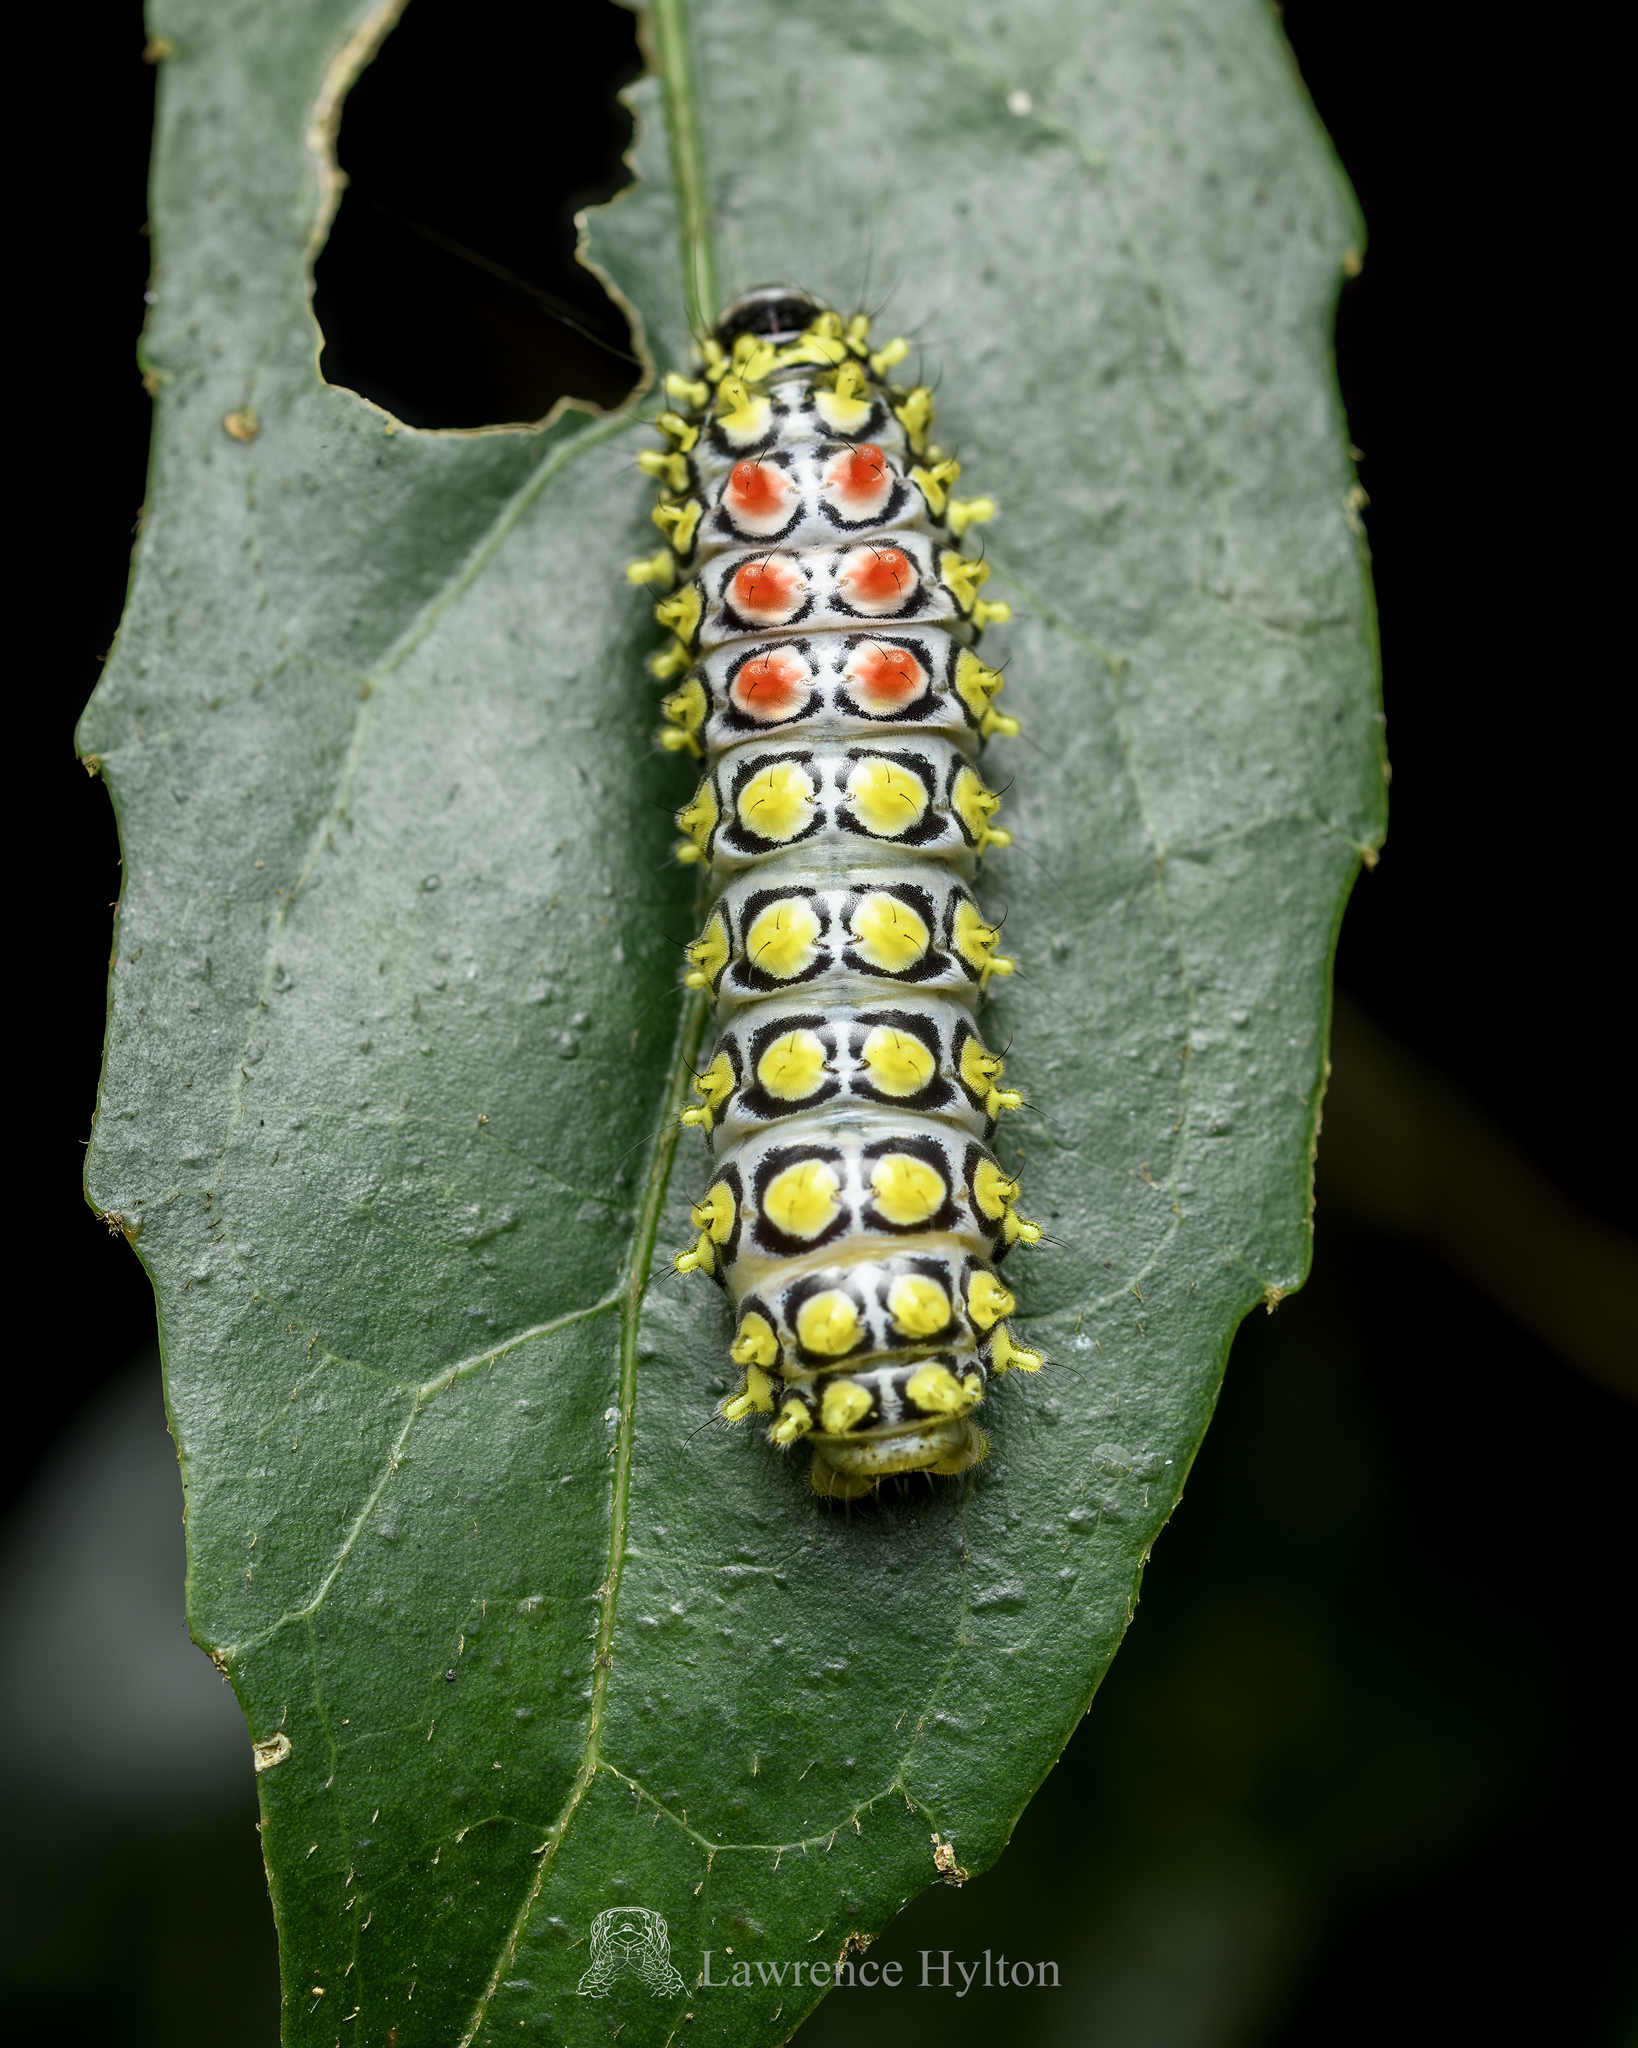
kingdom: Animalia
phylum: Arthropoda
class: Insecta
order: Lepidoptera
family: Zygaenidae
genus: Cyclosia
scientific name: Cyclosia papilionaris
